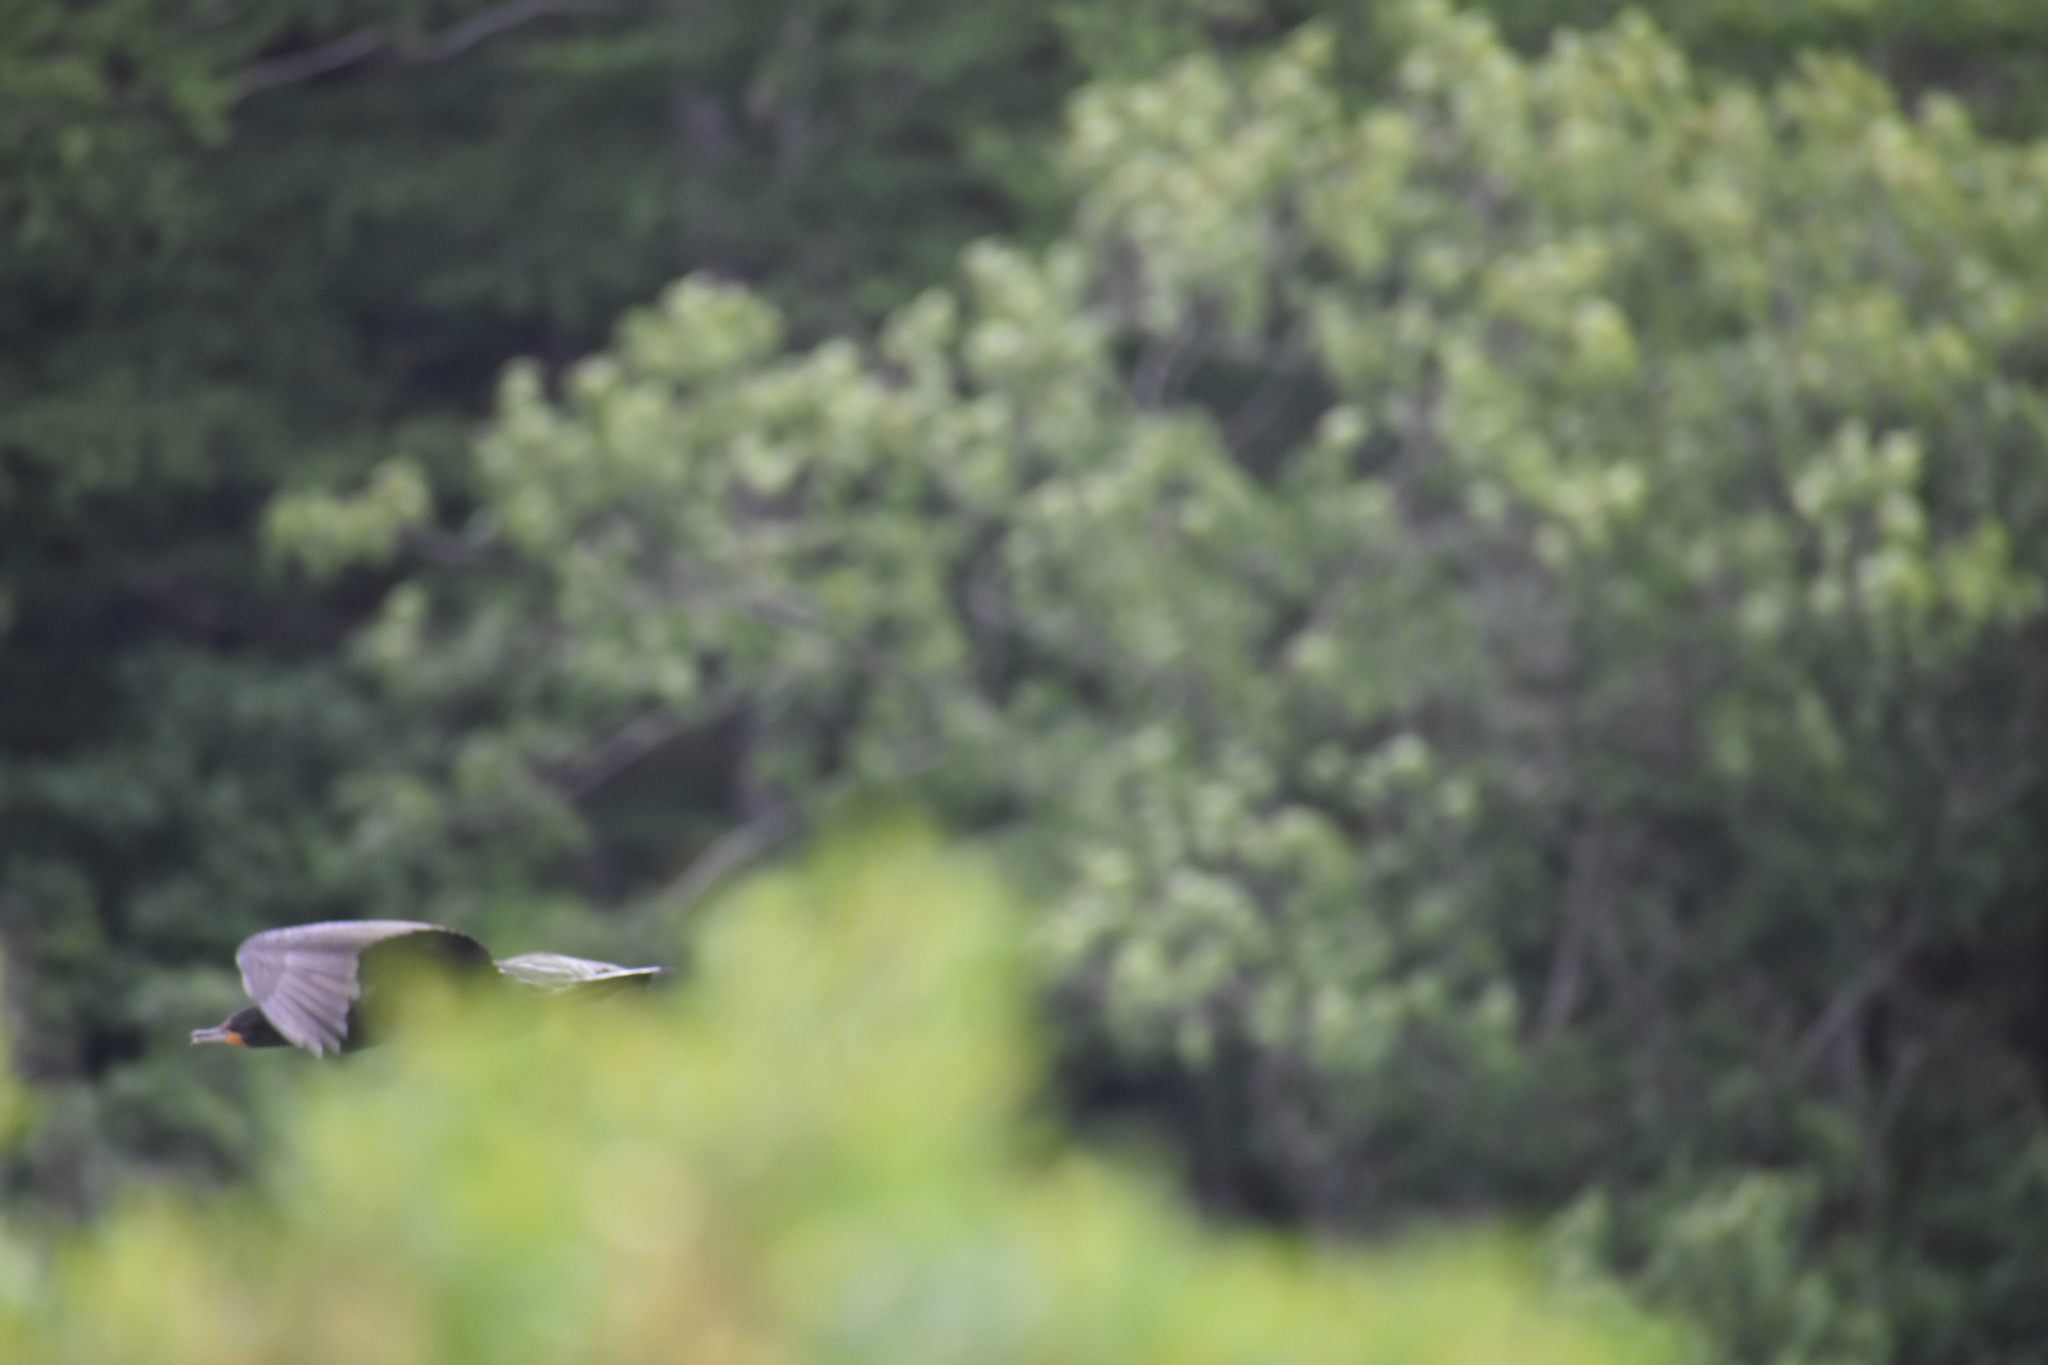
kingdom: Animalia
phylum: Chordata
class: Aves
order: Suliformes
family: Phalacrocoracidae
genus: Phalacrocorax
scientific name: Phalacrocorax auritus
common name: Double-crested cormorant
